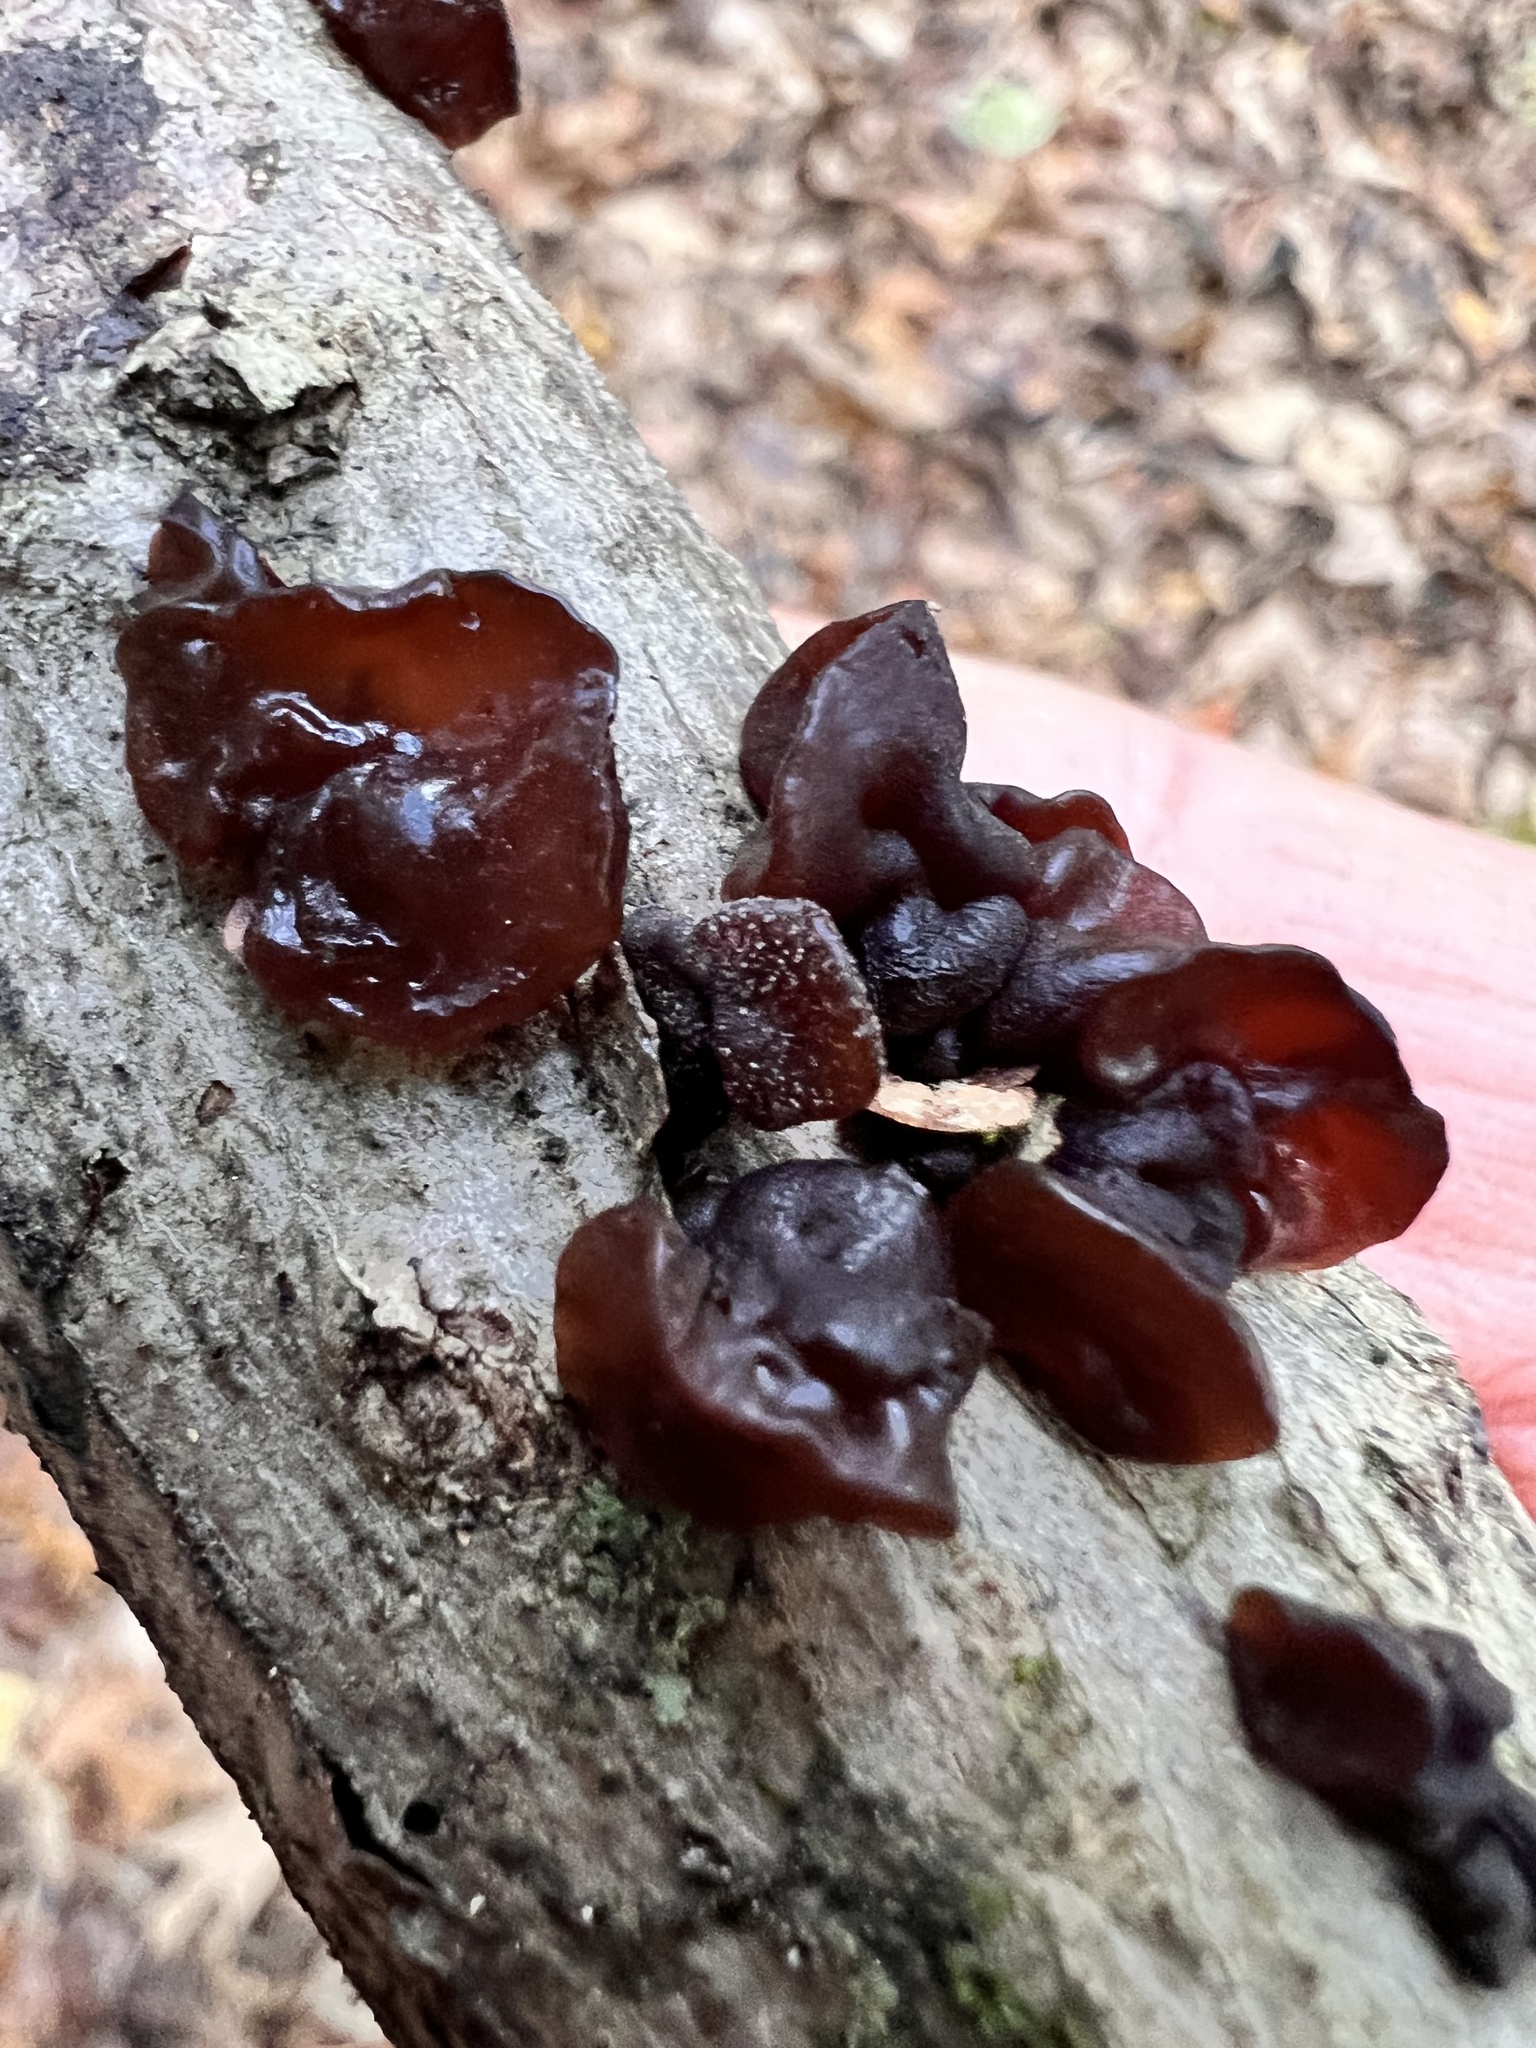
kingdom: Fungi
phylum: Basidiomycota
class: Agaricomycetes
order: Auriculariales
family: Auriculariaceae
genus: Exidia
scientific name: Exidia
